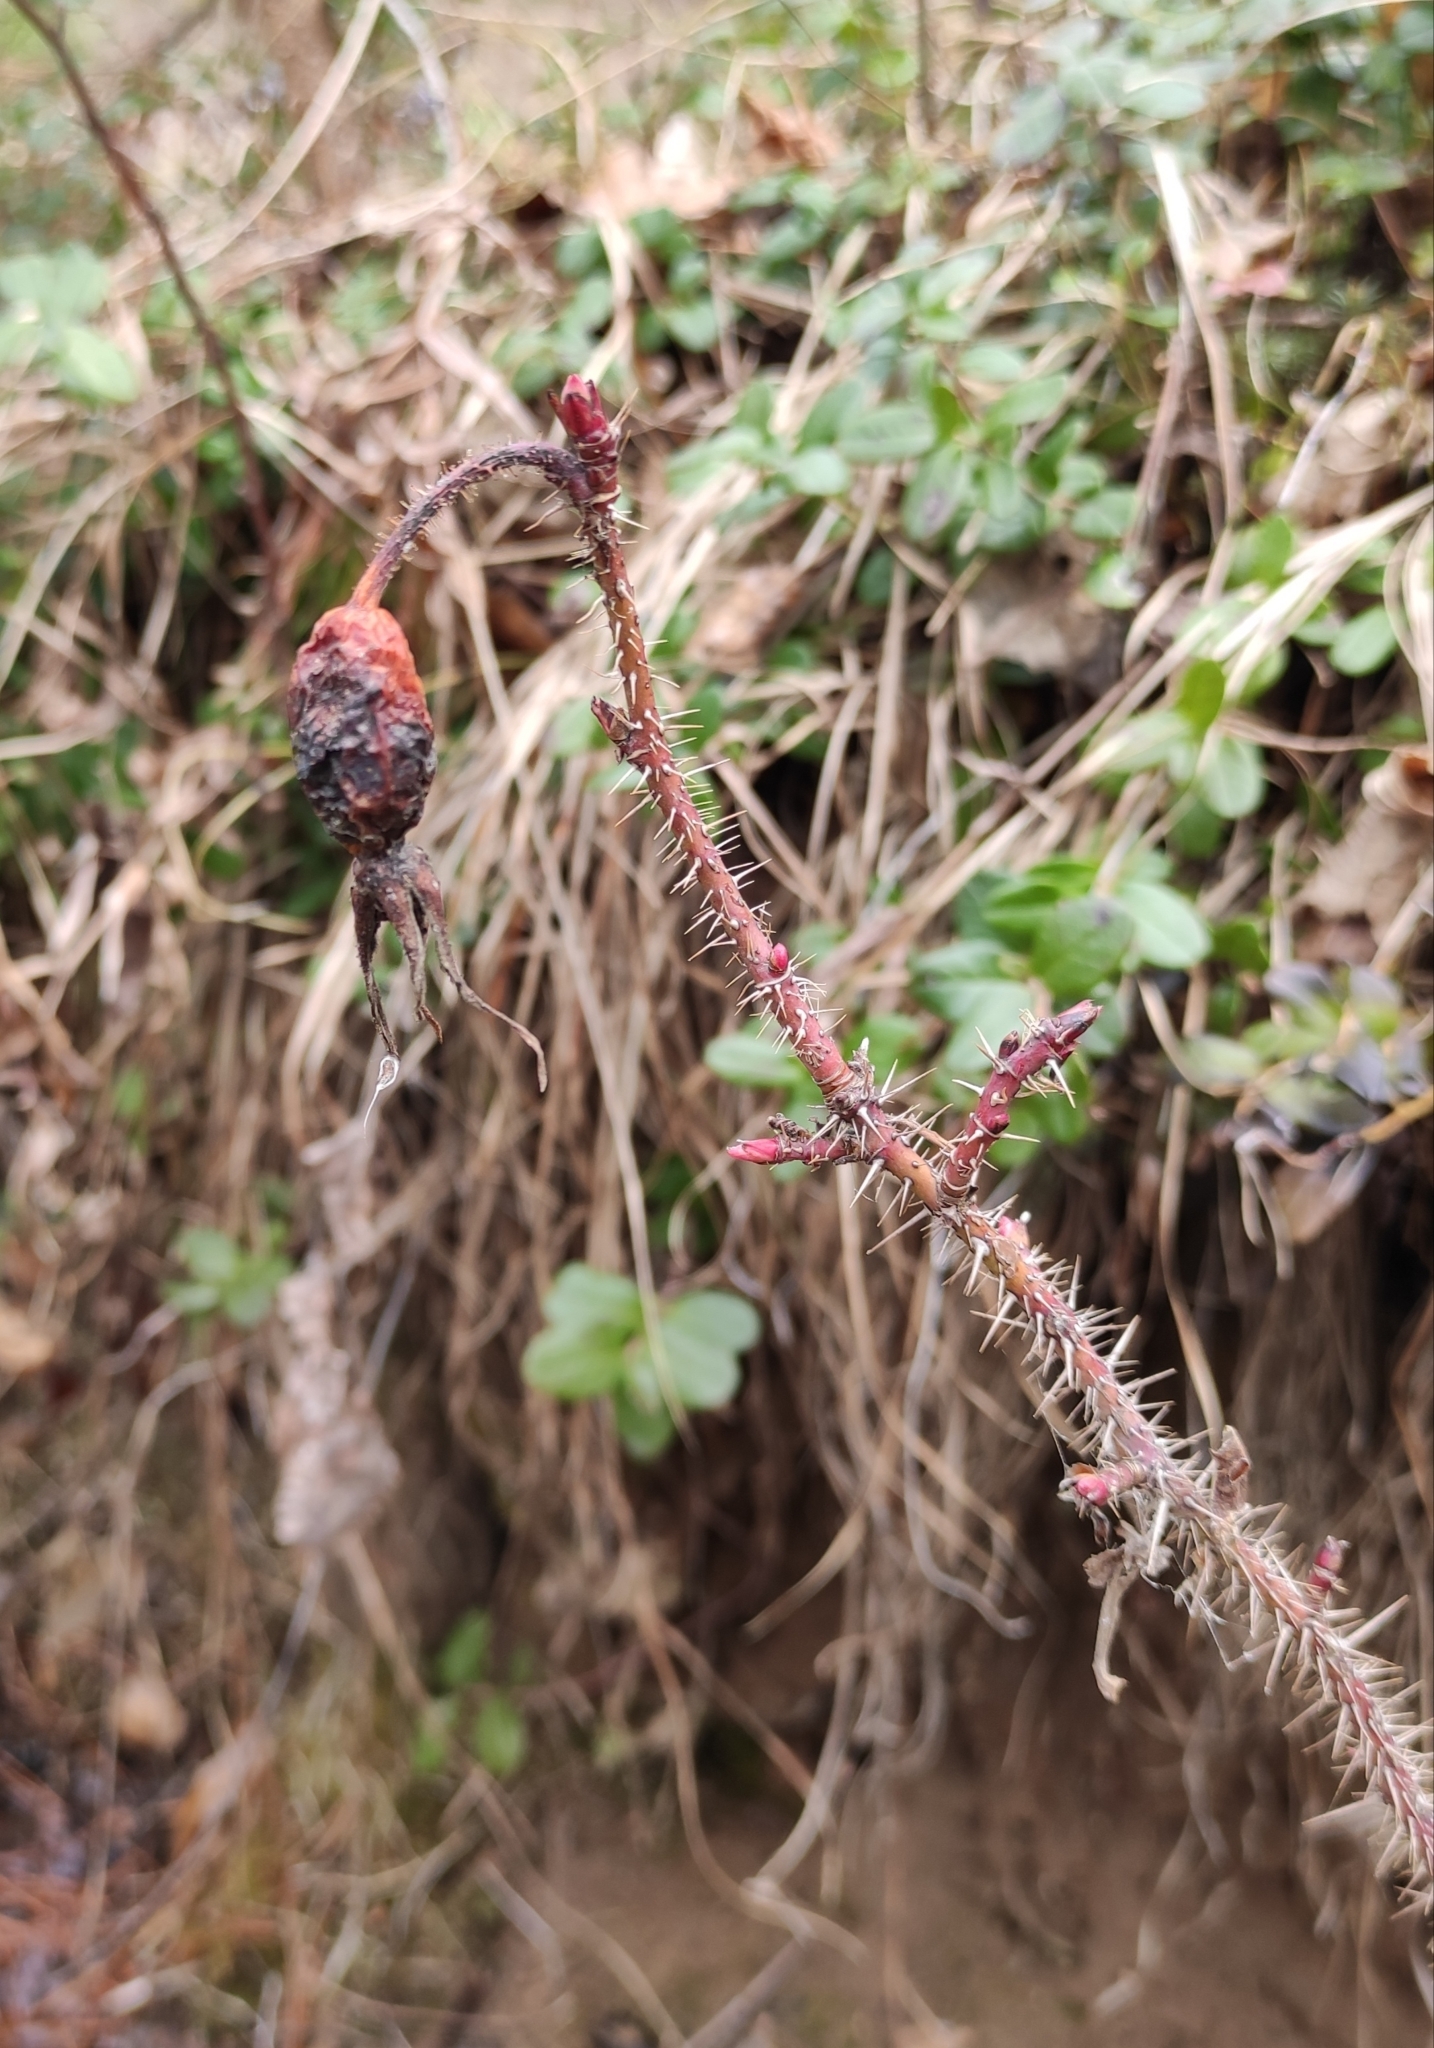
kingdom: Plantae
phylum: Tracheophyta
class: Magnoliopsida
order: Rosales
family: Rosaceae
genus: Rosa
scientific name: Rosa acicularis
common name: Prickly rose
